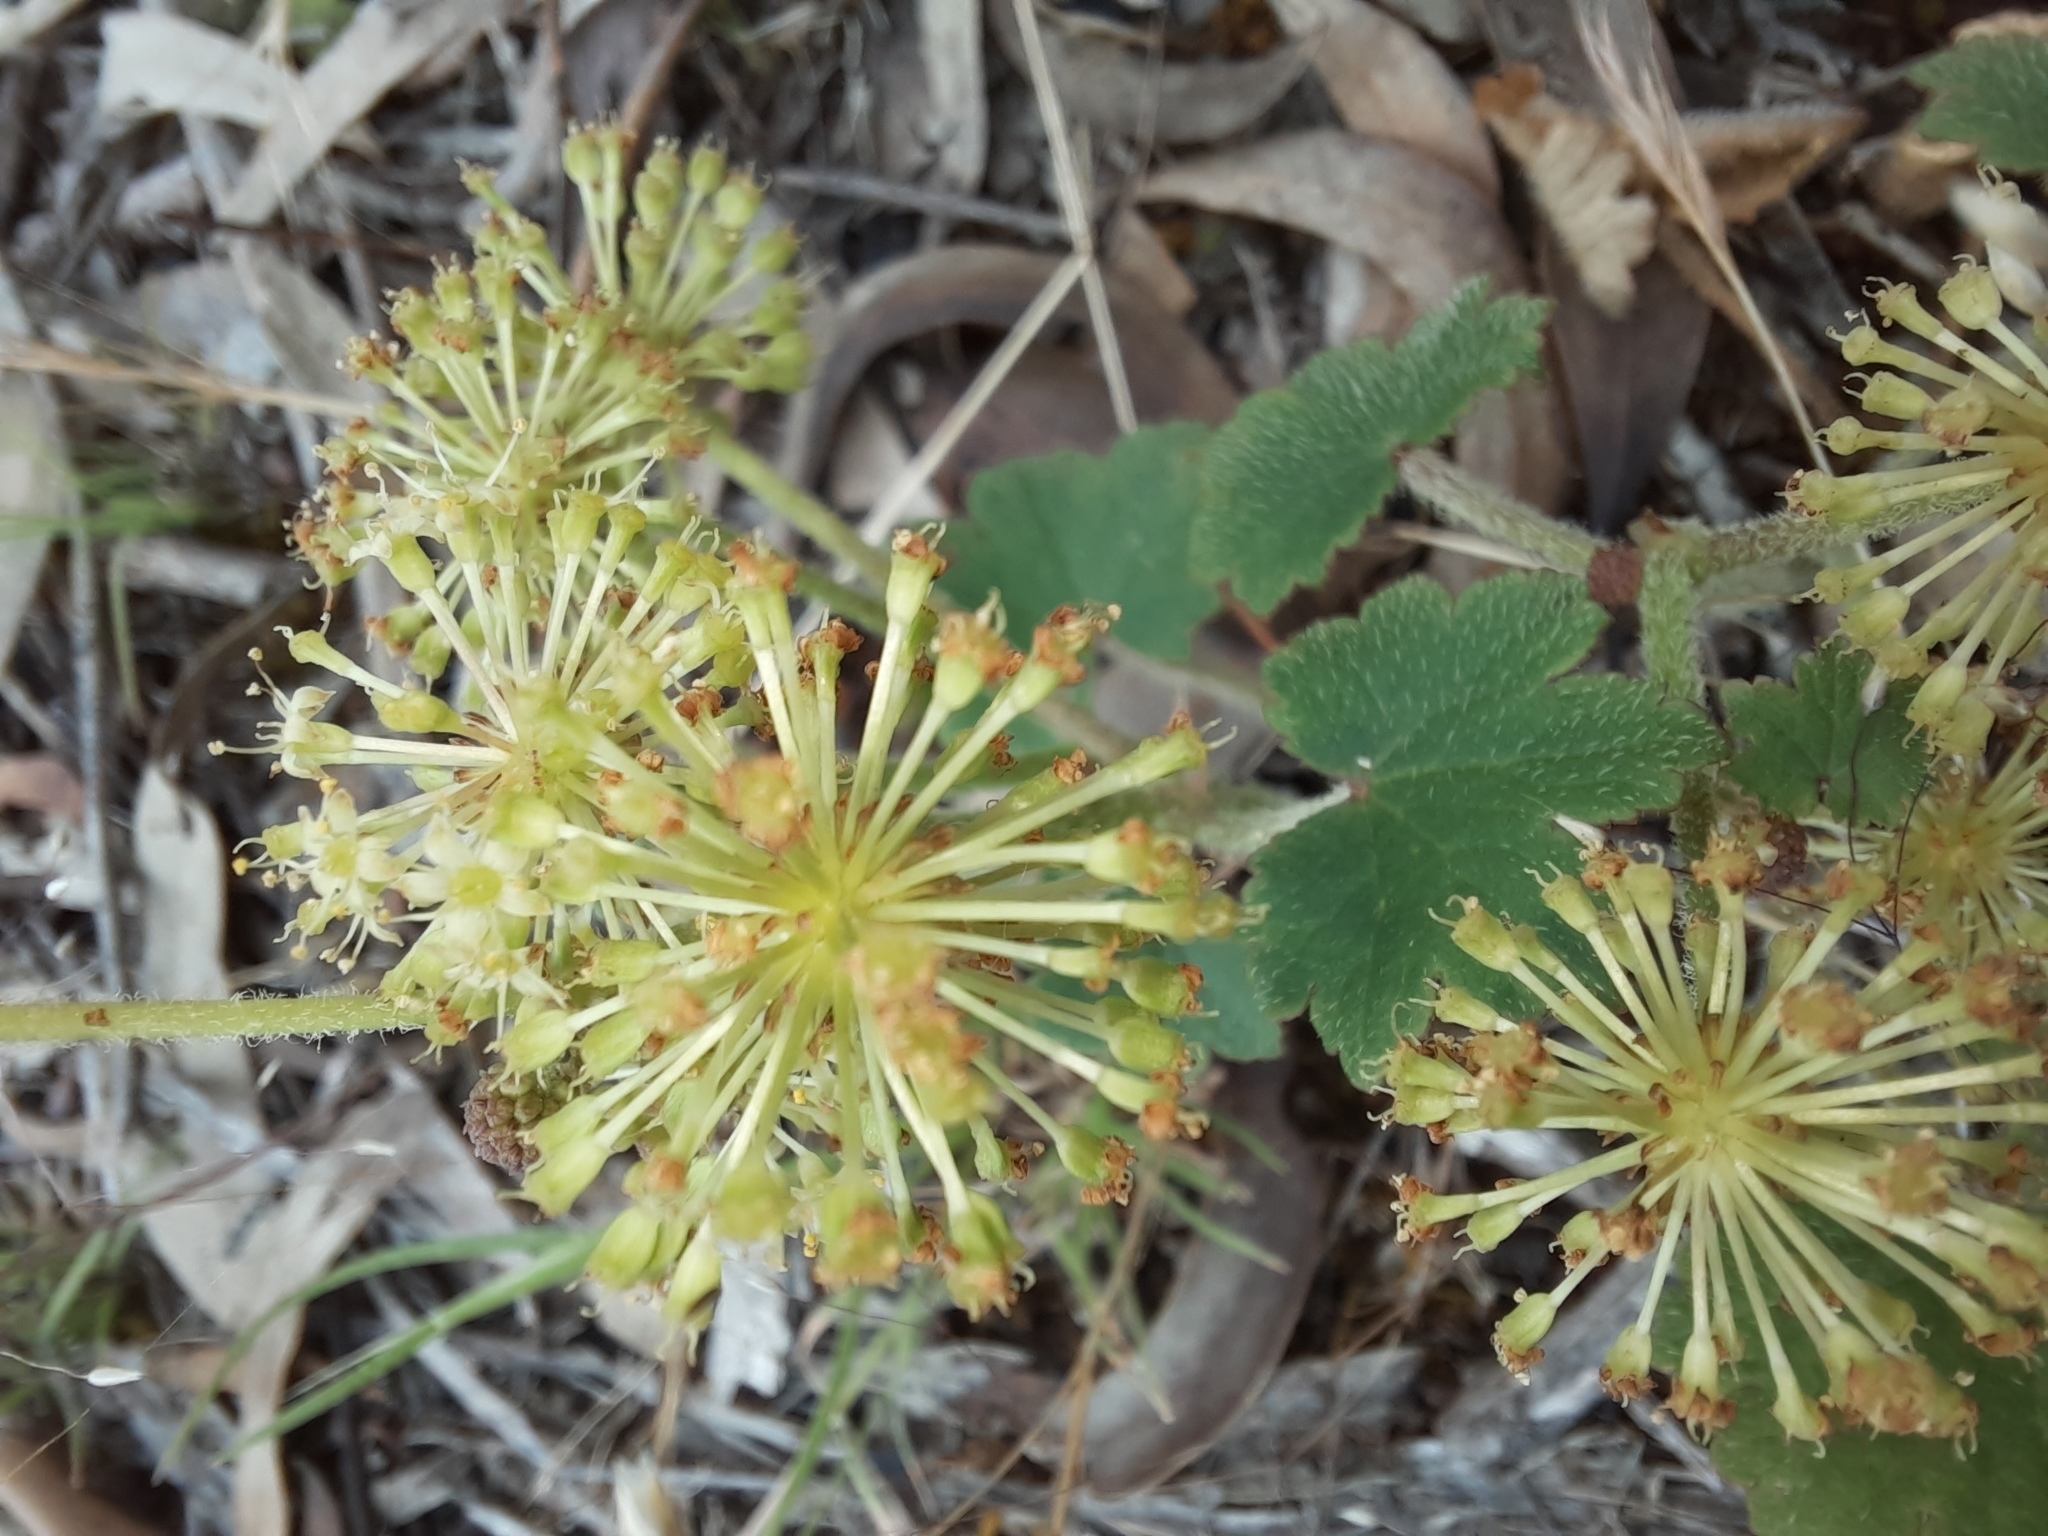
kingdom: Plantae
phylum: Tracheophyta
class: Magnoliopsida
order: Apiales
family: Araliaceae
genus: Hydrocotyle
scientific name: Hydrocotyle laxiflora
